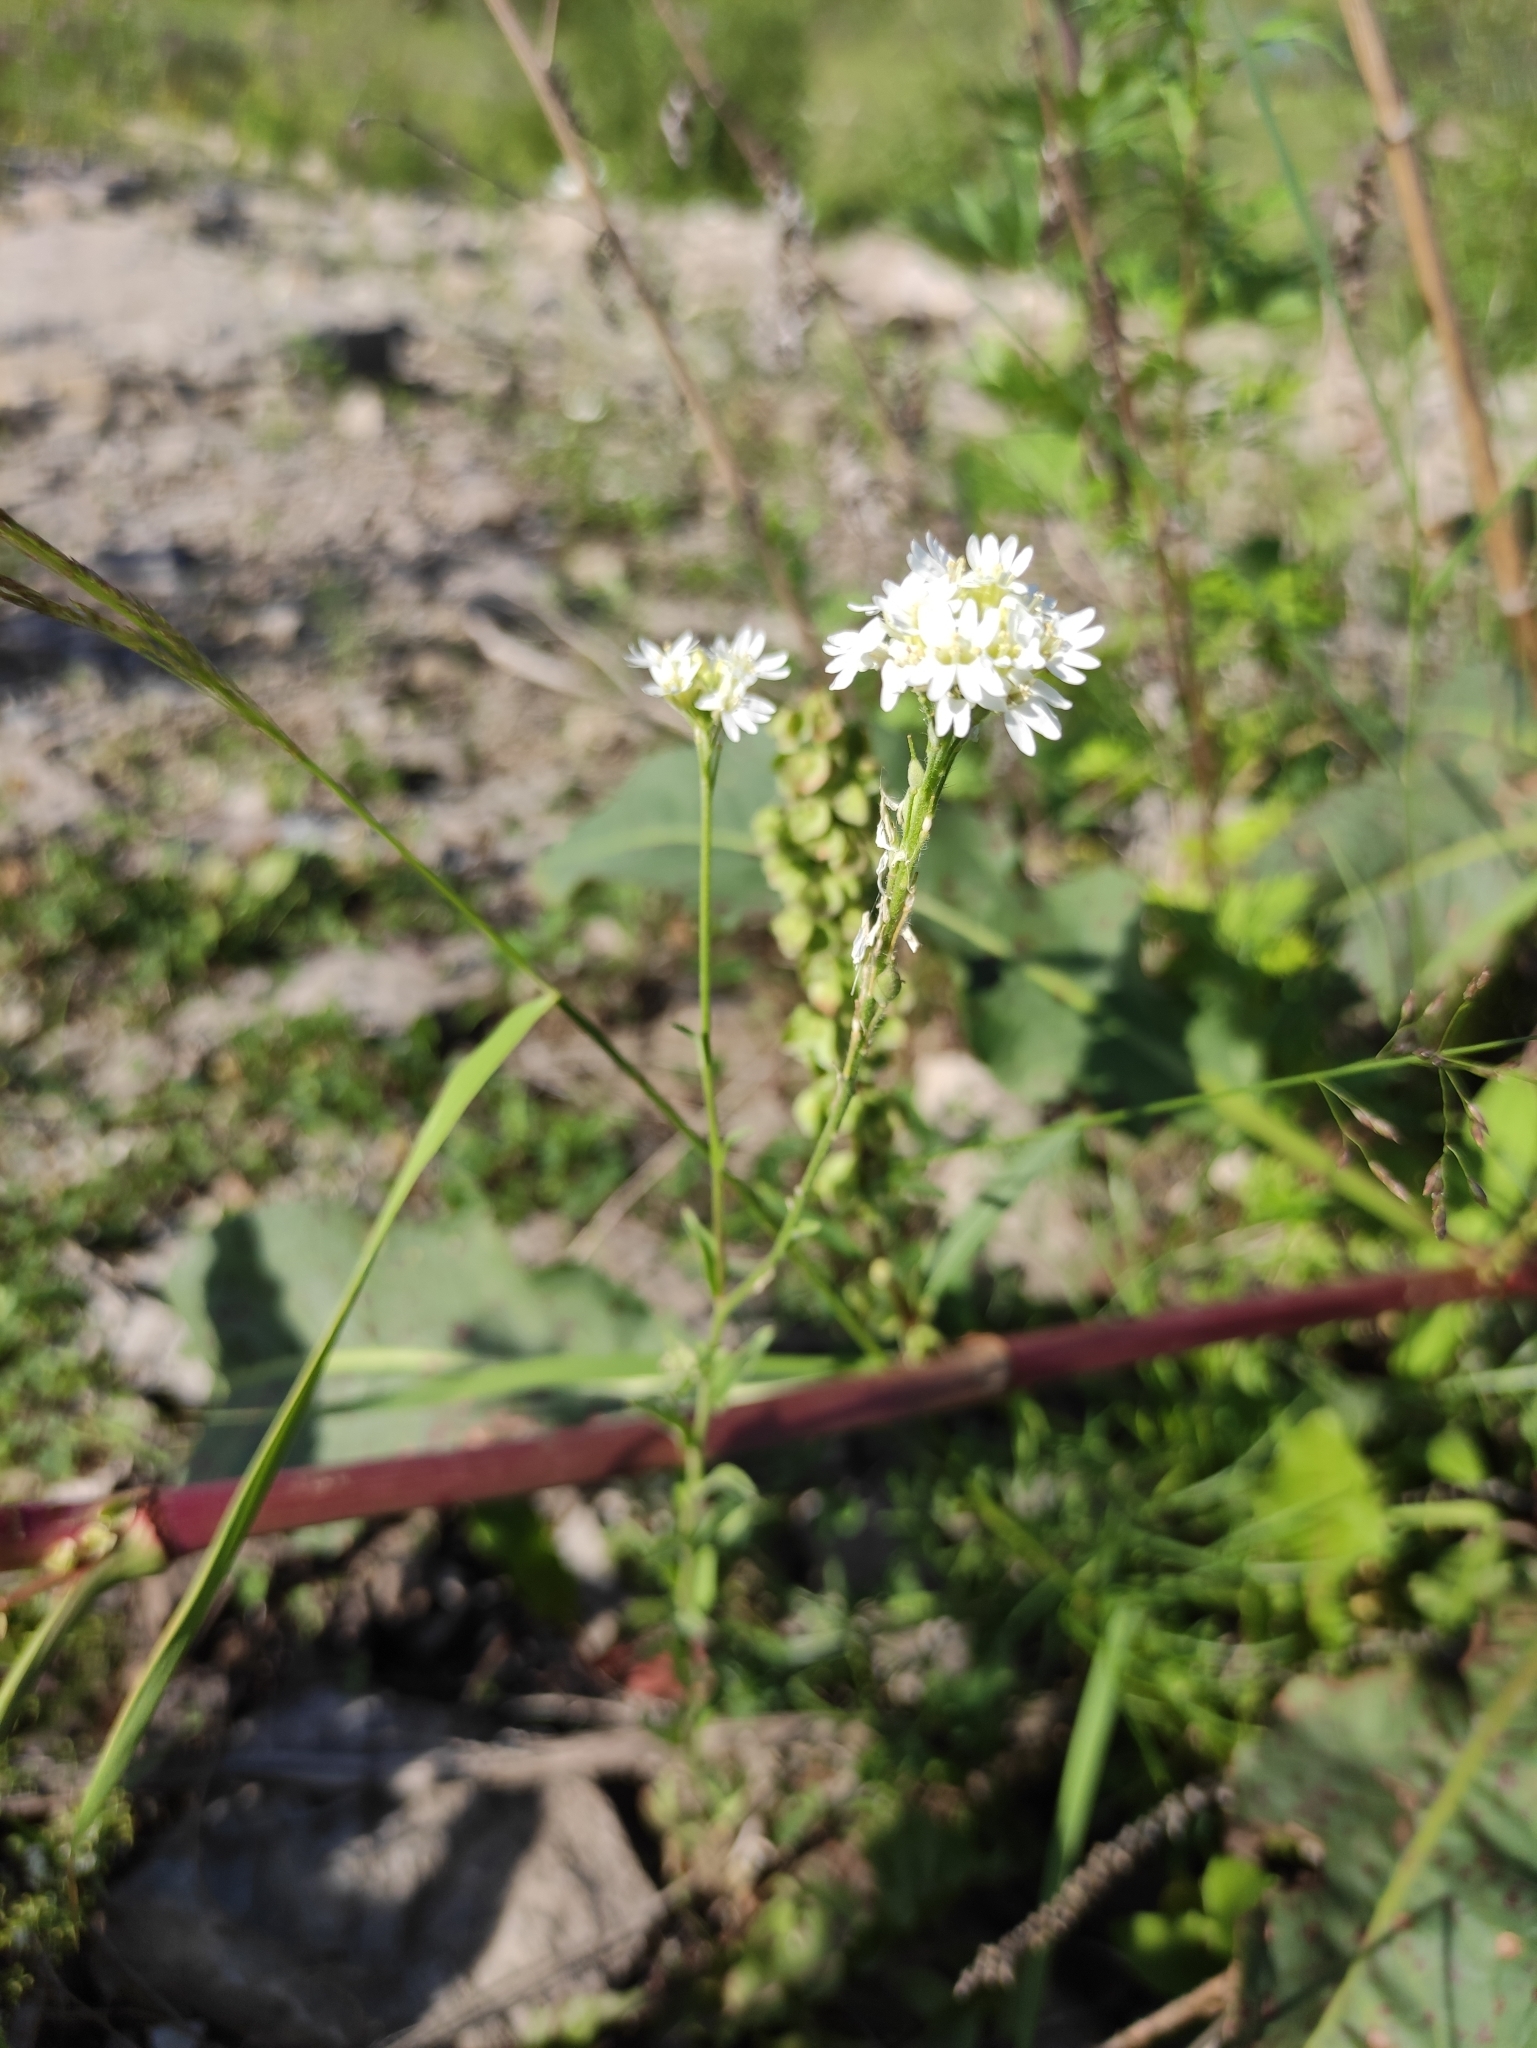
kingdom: Plantae
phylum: Tracheophyta
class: Magnoliopsida
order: Brassicales
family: Brassicaceae
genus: Berteroa
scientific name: Berteroa incana
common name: Hoary alison
